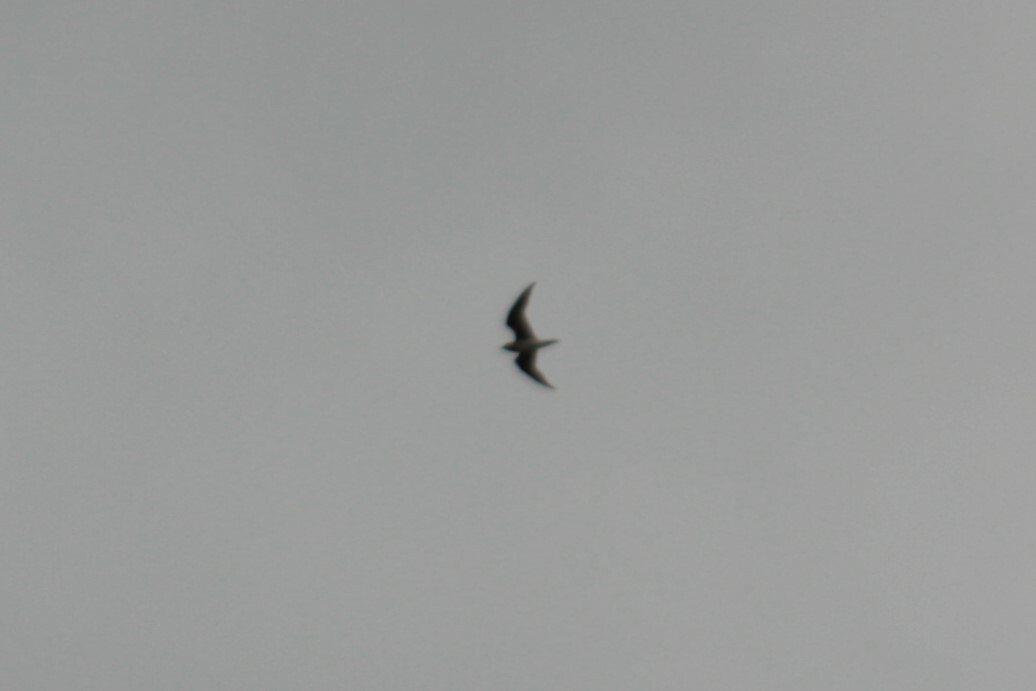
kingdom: Animalia
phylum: Chordata
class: Aves
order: Charadriiformes
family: Glareolidae
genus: Glareola
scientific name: Glareola maldivarum
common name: Oriental pratincole
